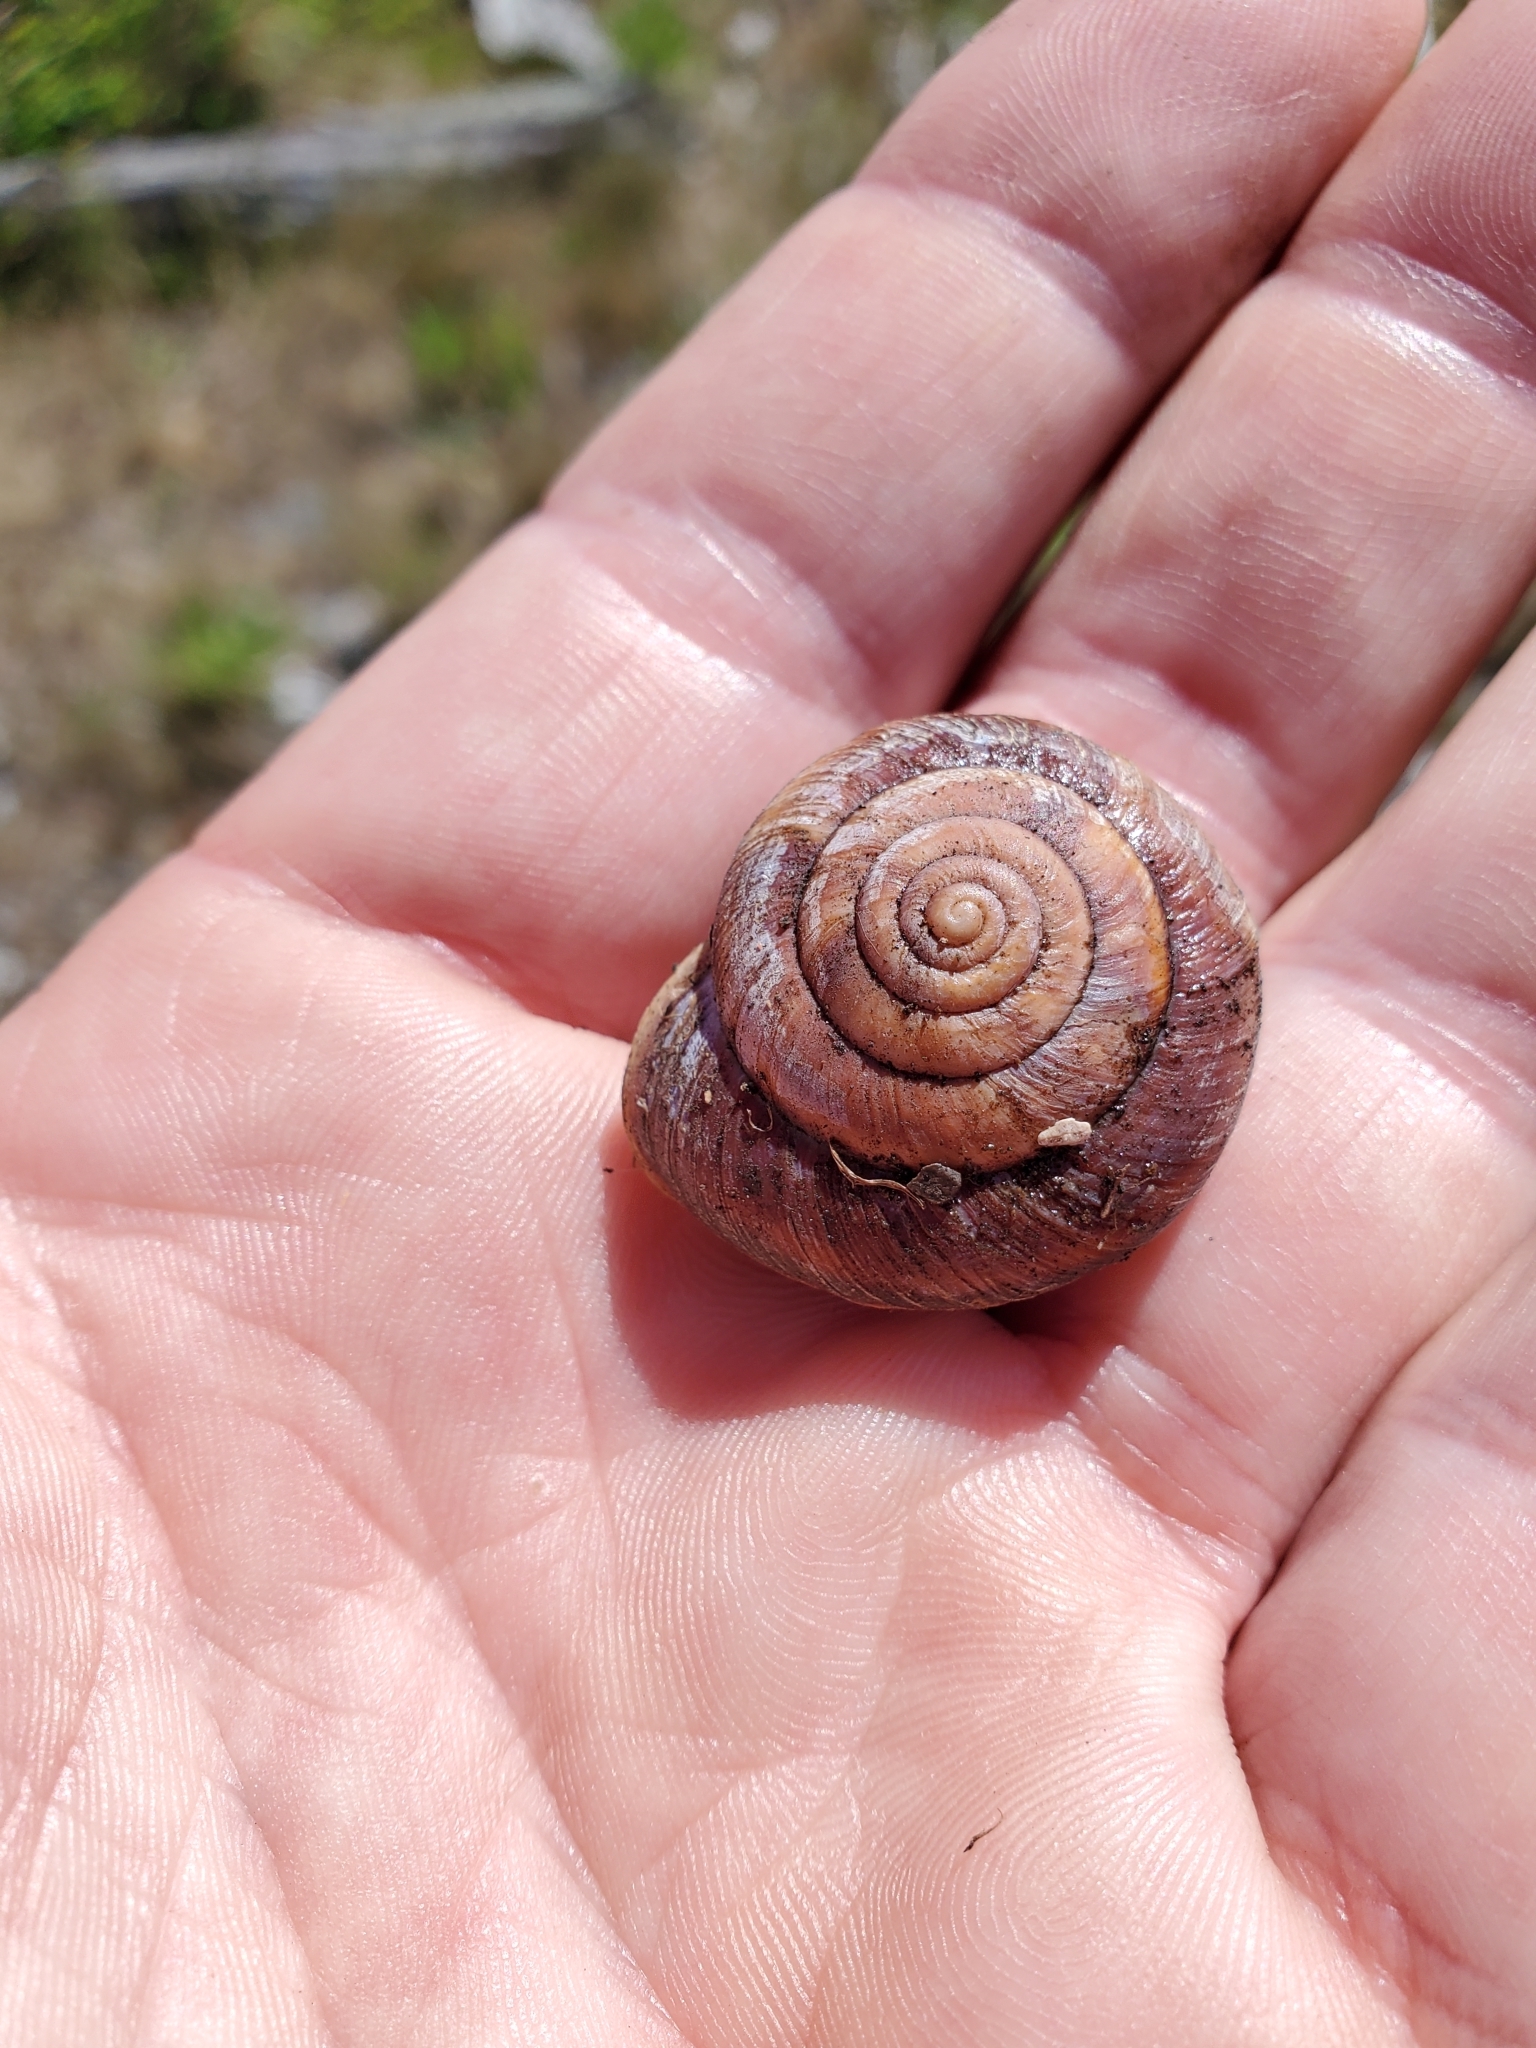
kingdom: Animalia
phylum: Mollusca
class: Gastropoda
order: Stylommatophora
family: Xanthonychidae
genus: Monadenia
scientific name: Monadenia fidelis
